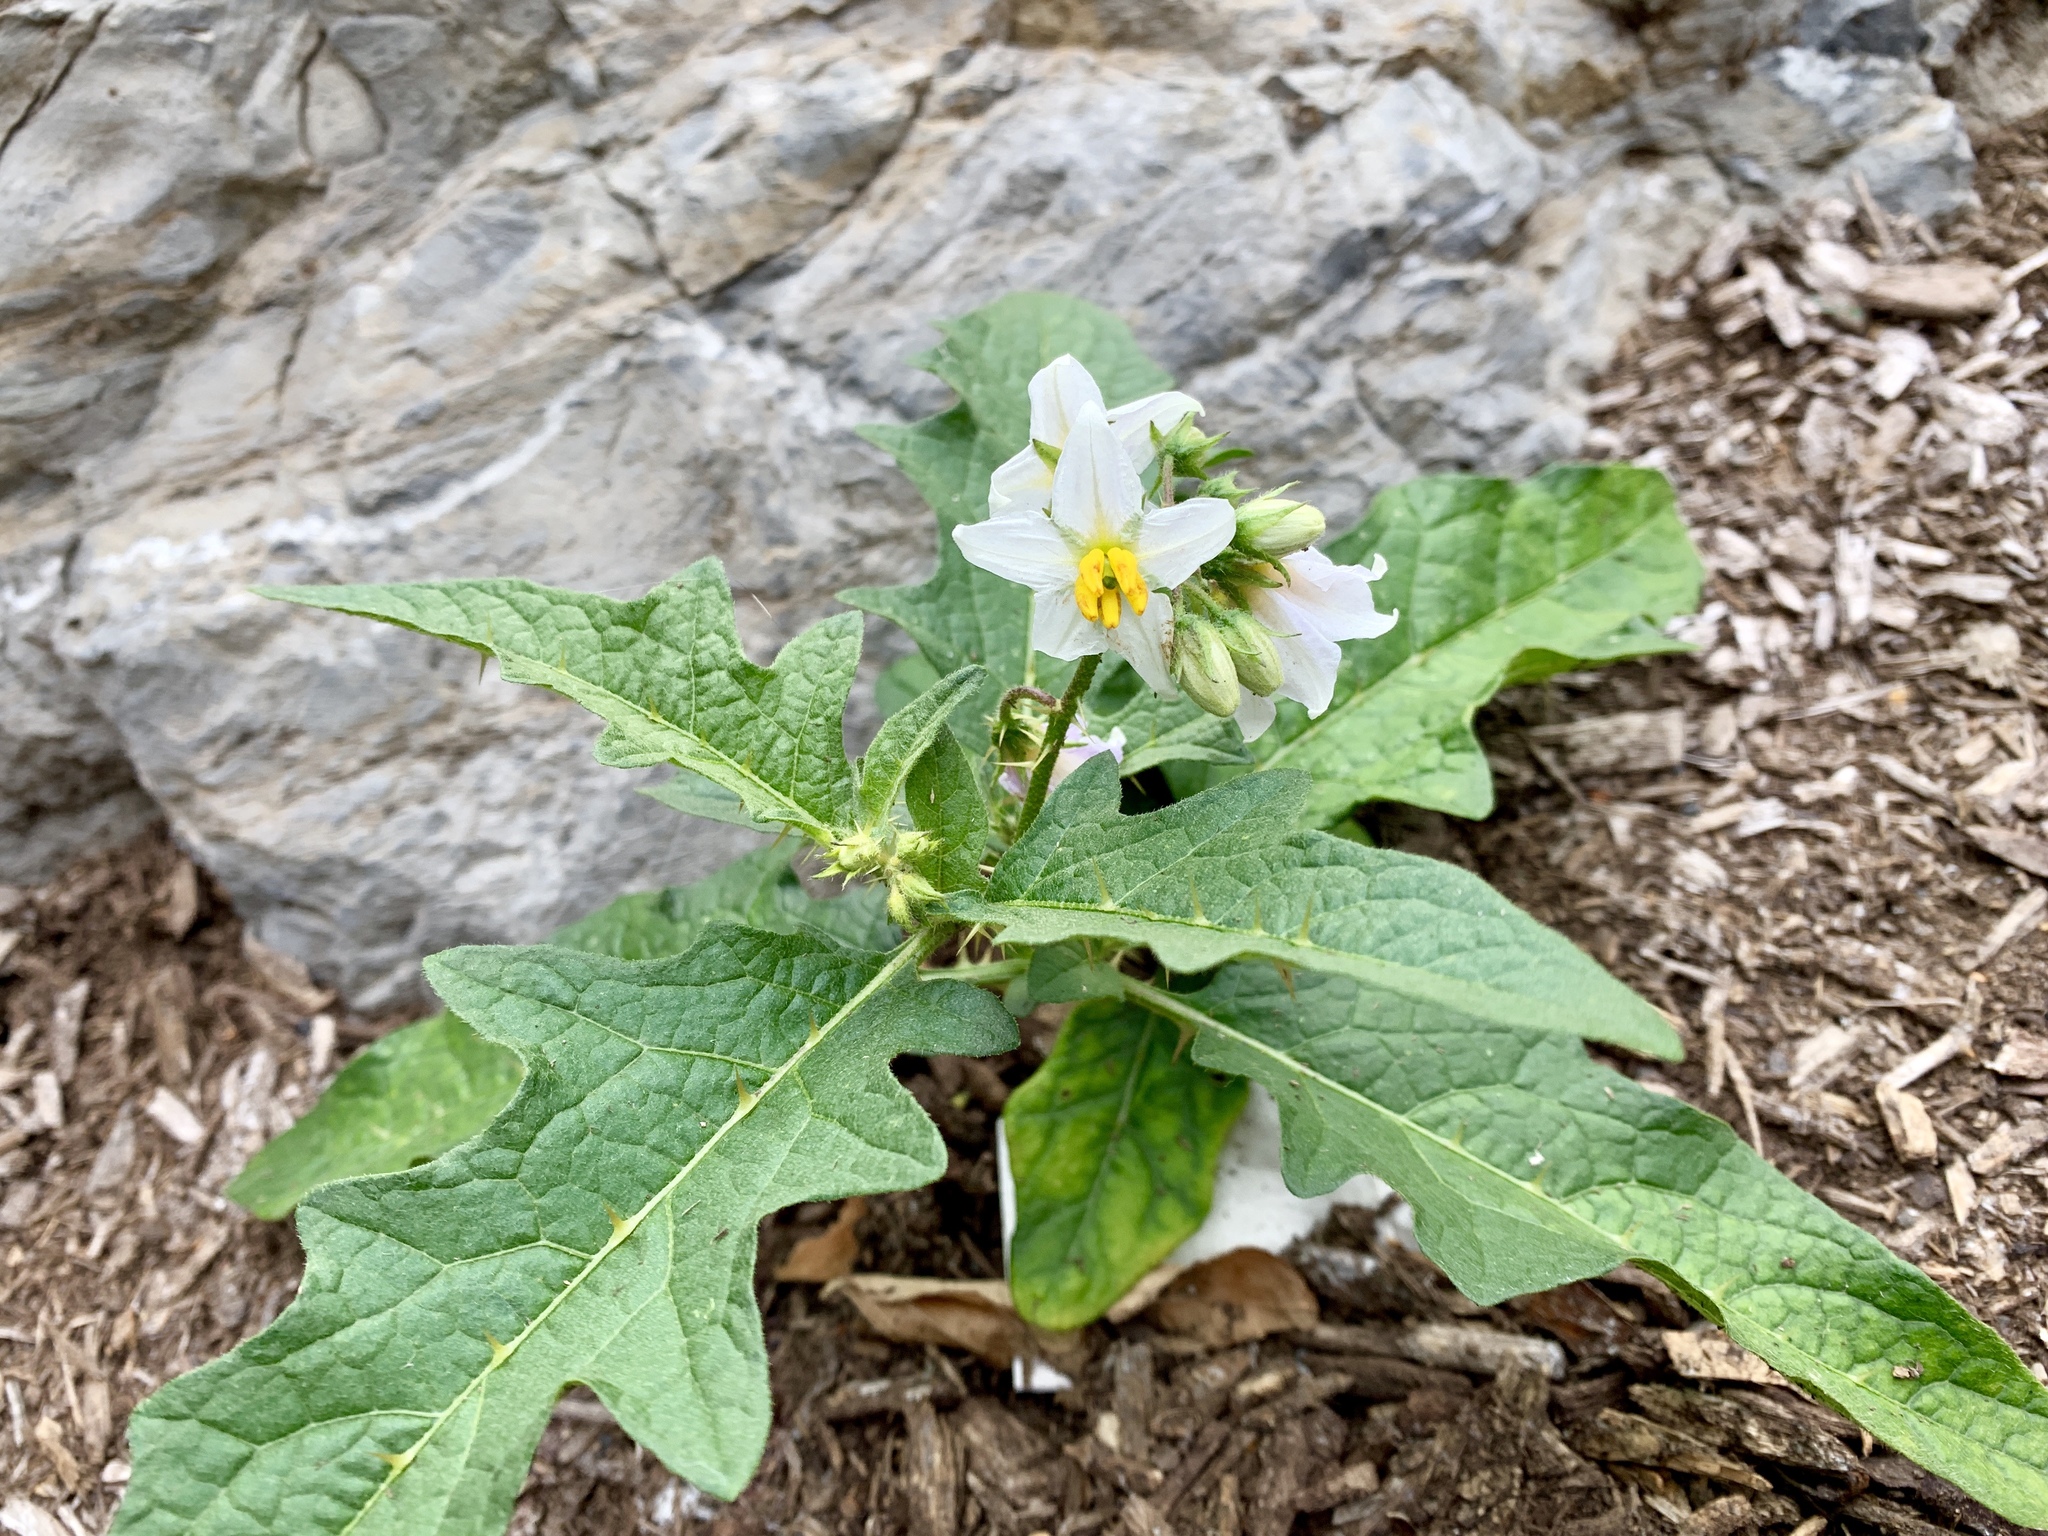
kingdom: Plantae
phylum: Tracheophyta
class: Magnoliopsida
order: Solanales
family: Solanaceae
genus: Solanum
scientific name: Solanum carolinense
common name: Horse-nettle
